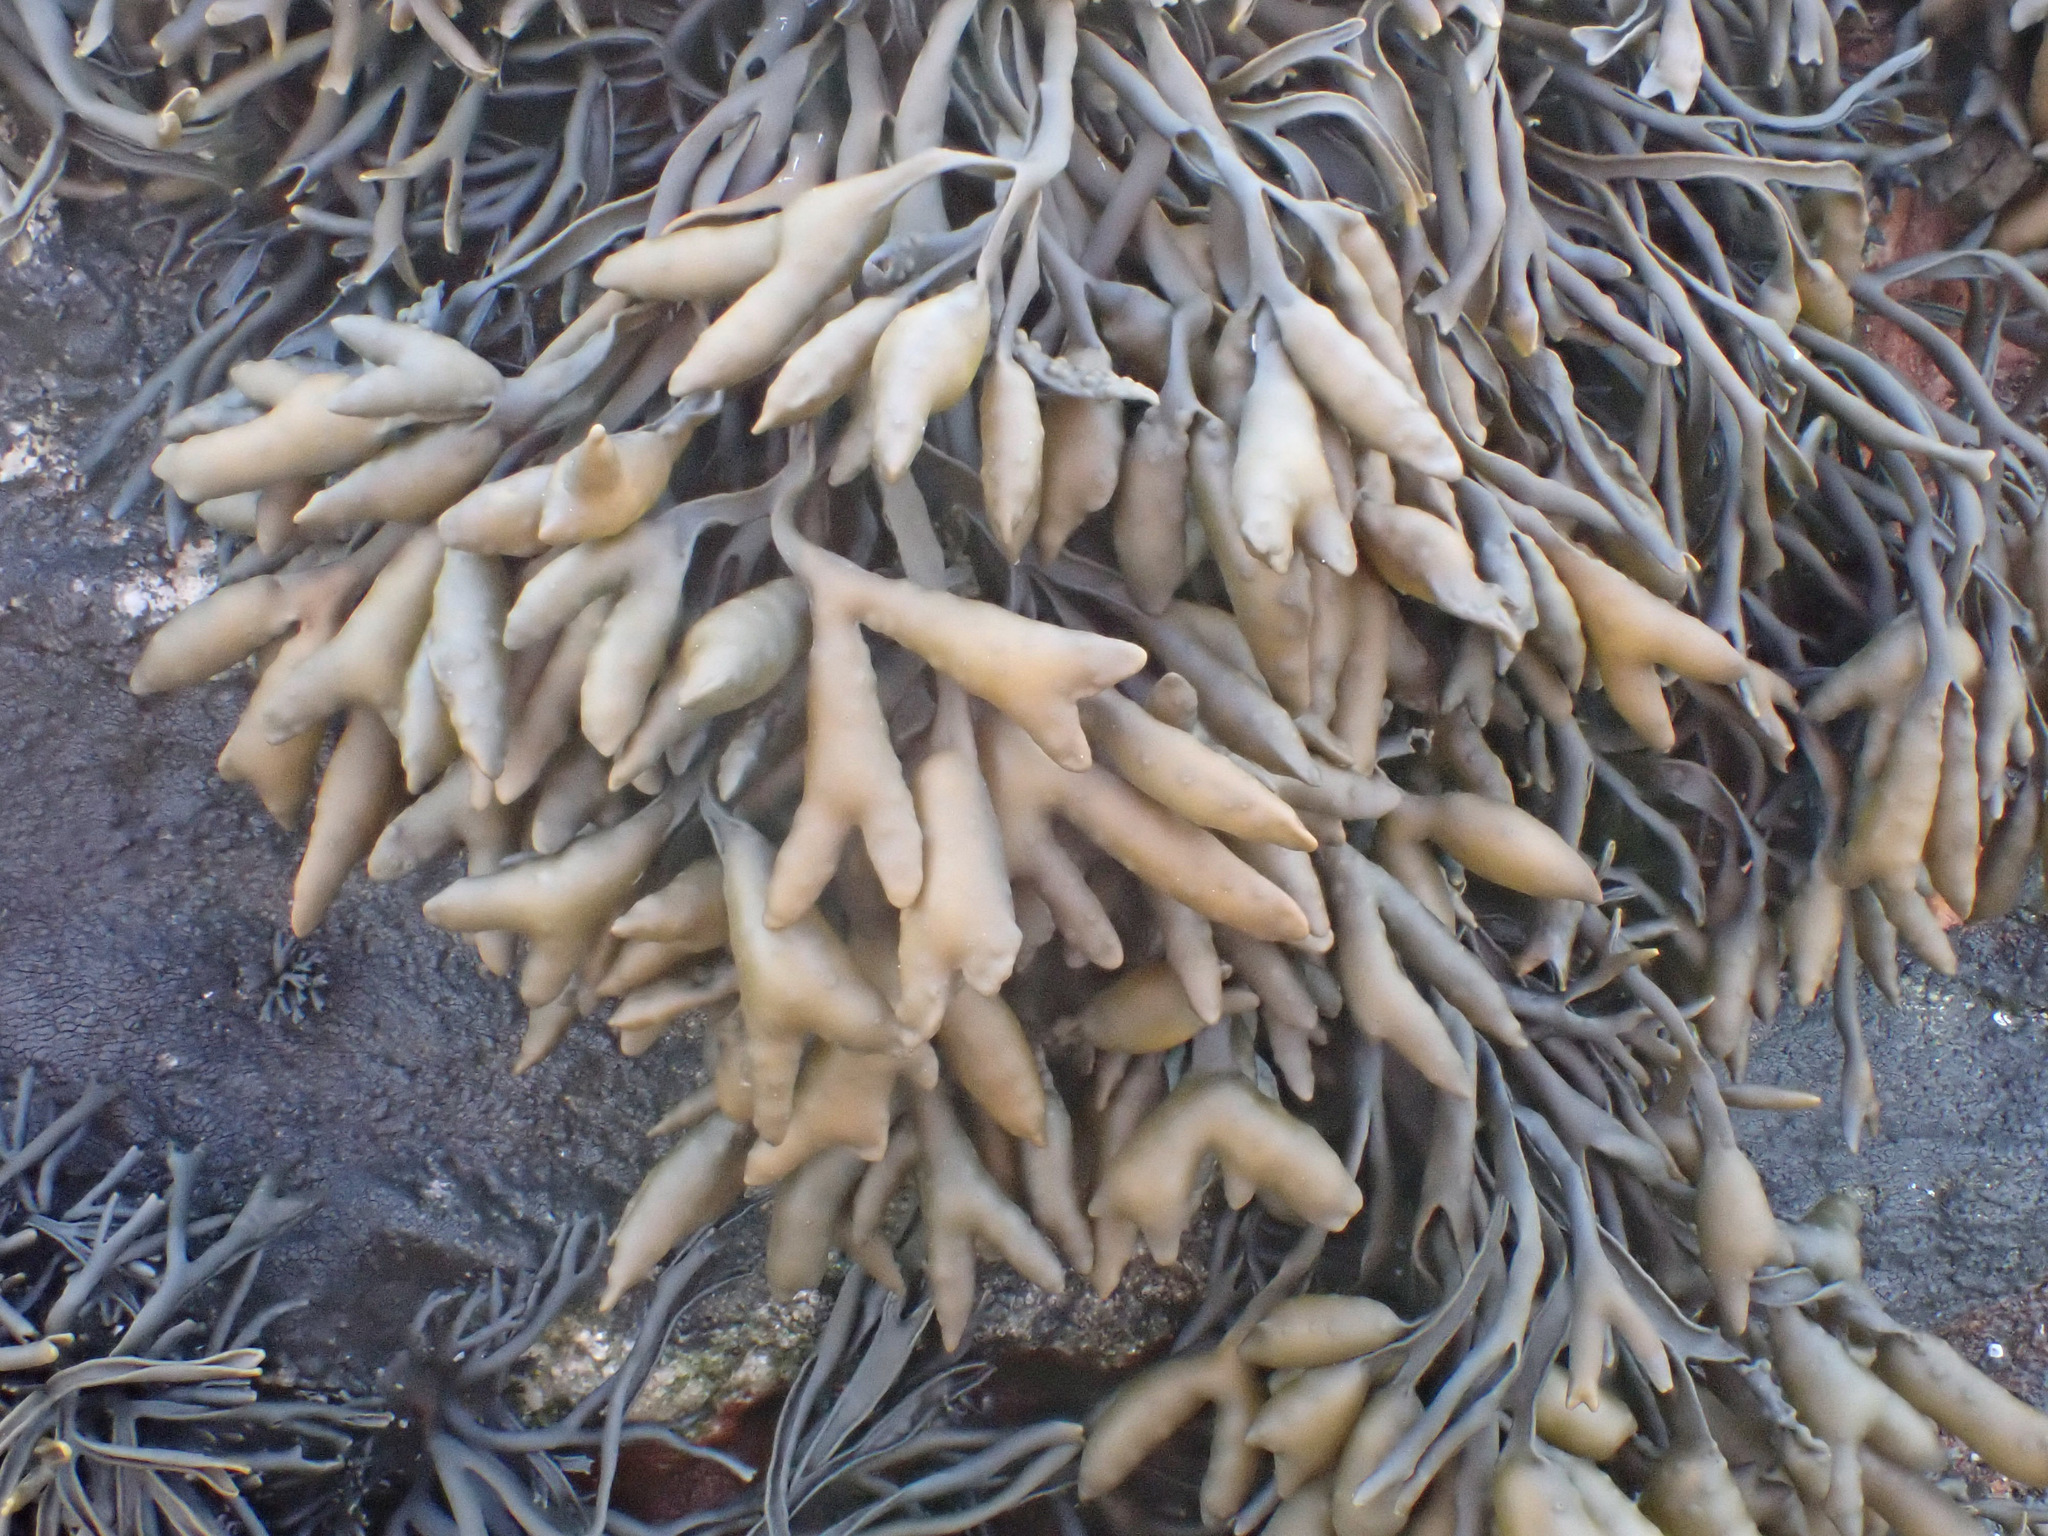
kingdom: Chromista
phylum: Ochrophyta
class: Phaeophyceae
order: Fucales
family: Fucaceae
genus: Pelvetia
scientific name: Pelvetia canaliculata
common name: Channelled wrack
